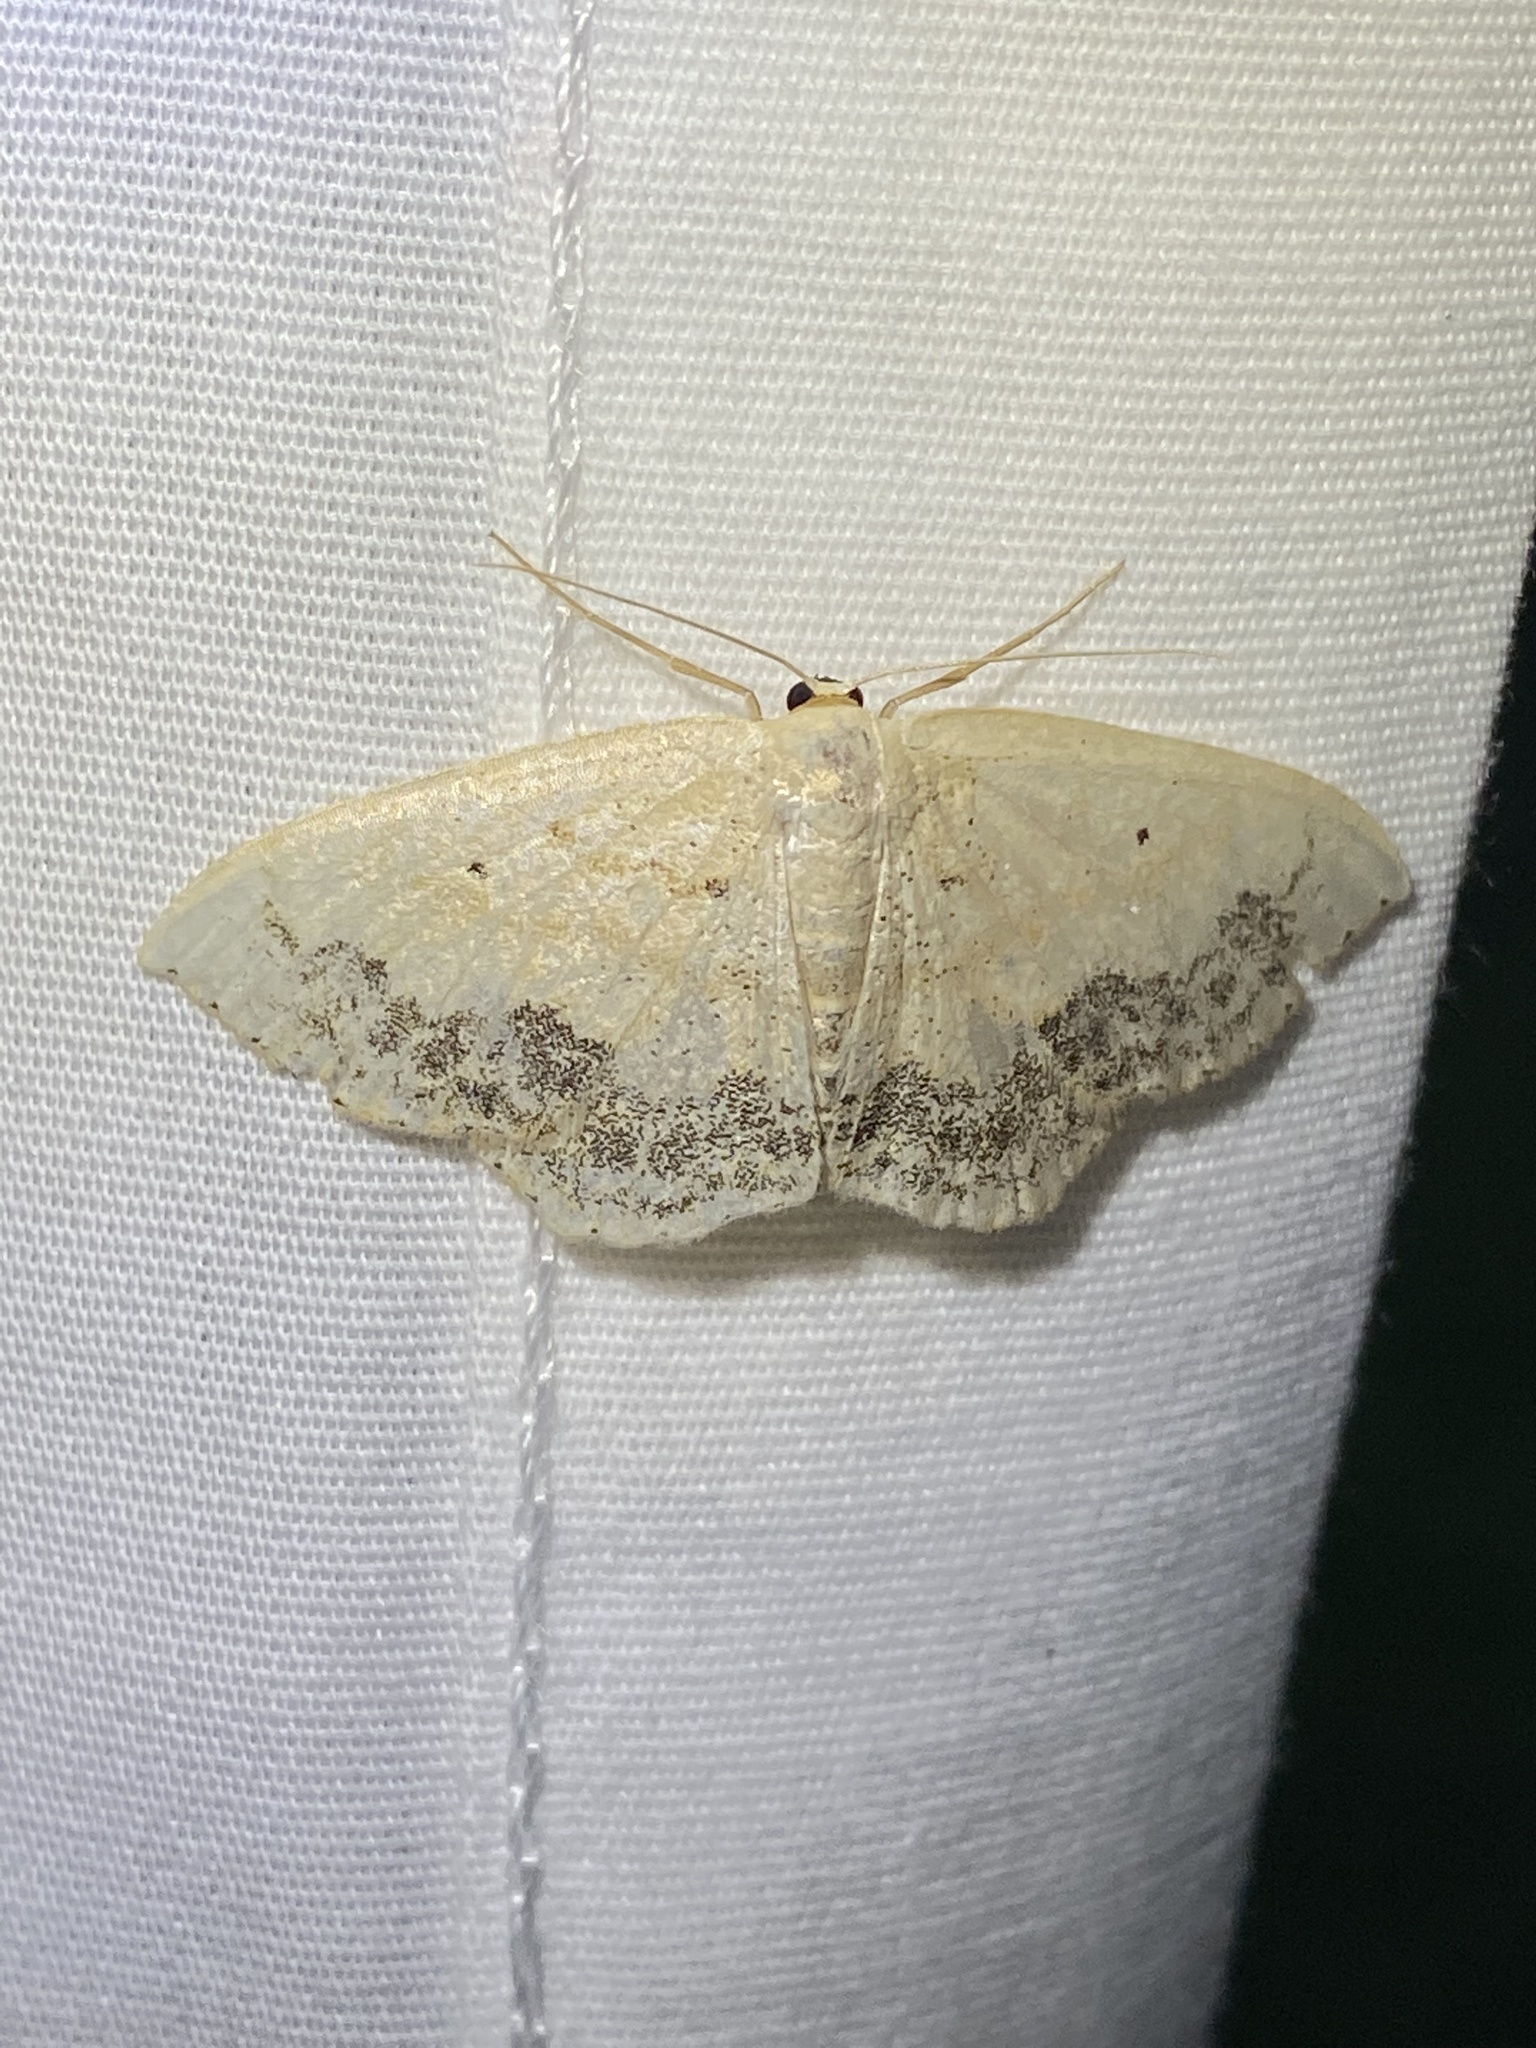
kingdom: Animalia
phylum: Arthropoda
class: Insecta
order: Lepidoptera
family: Geometridae
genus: Scopula
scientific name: Scopula limboundata
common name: Large lace border
